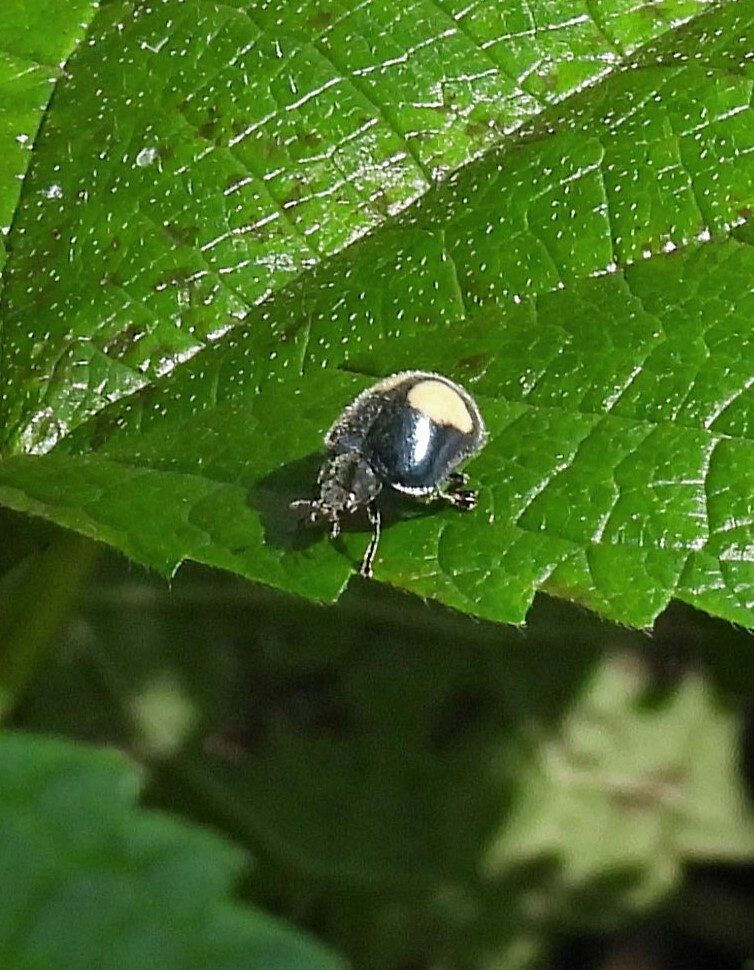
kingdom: Animalia
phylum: Arthropoda
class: Insecta
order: Coleoptera
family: Coccinellidae
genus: Epilachna
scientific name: Epilachna sellata
